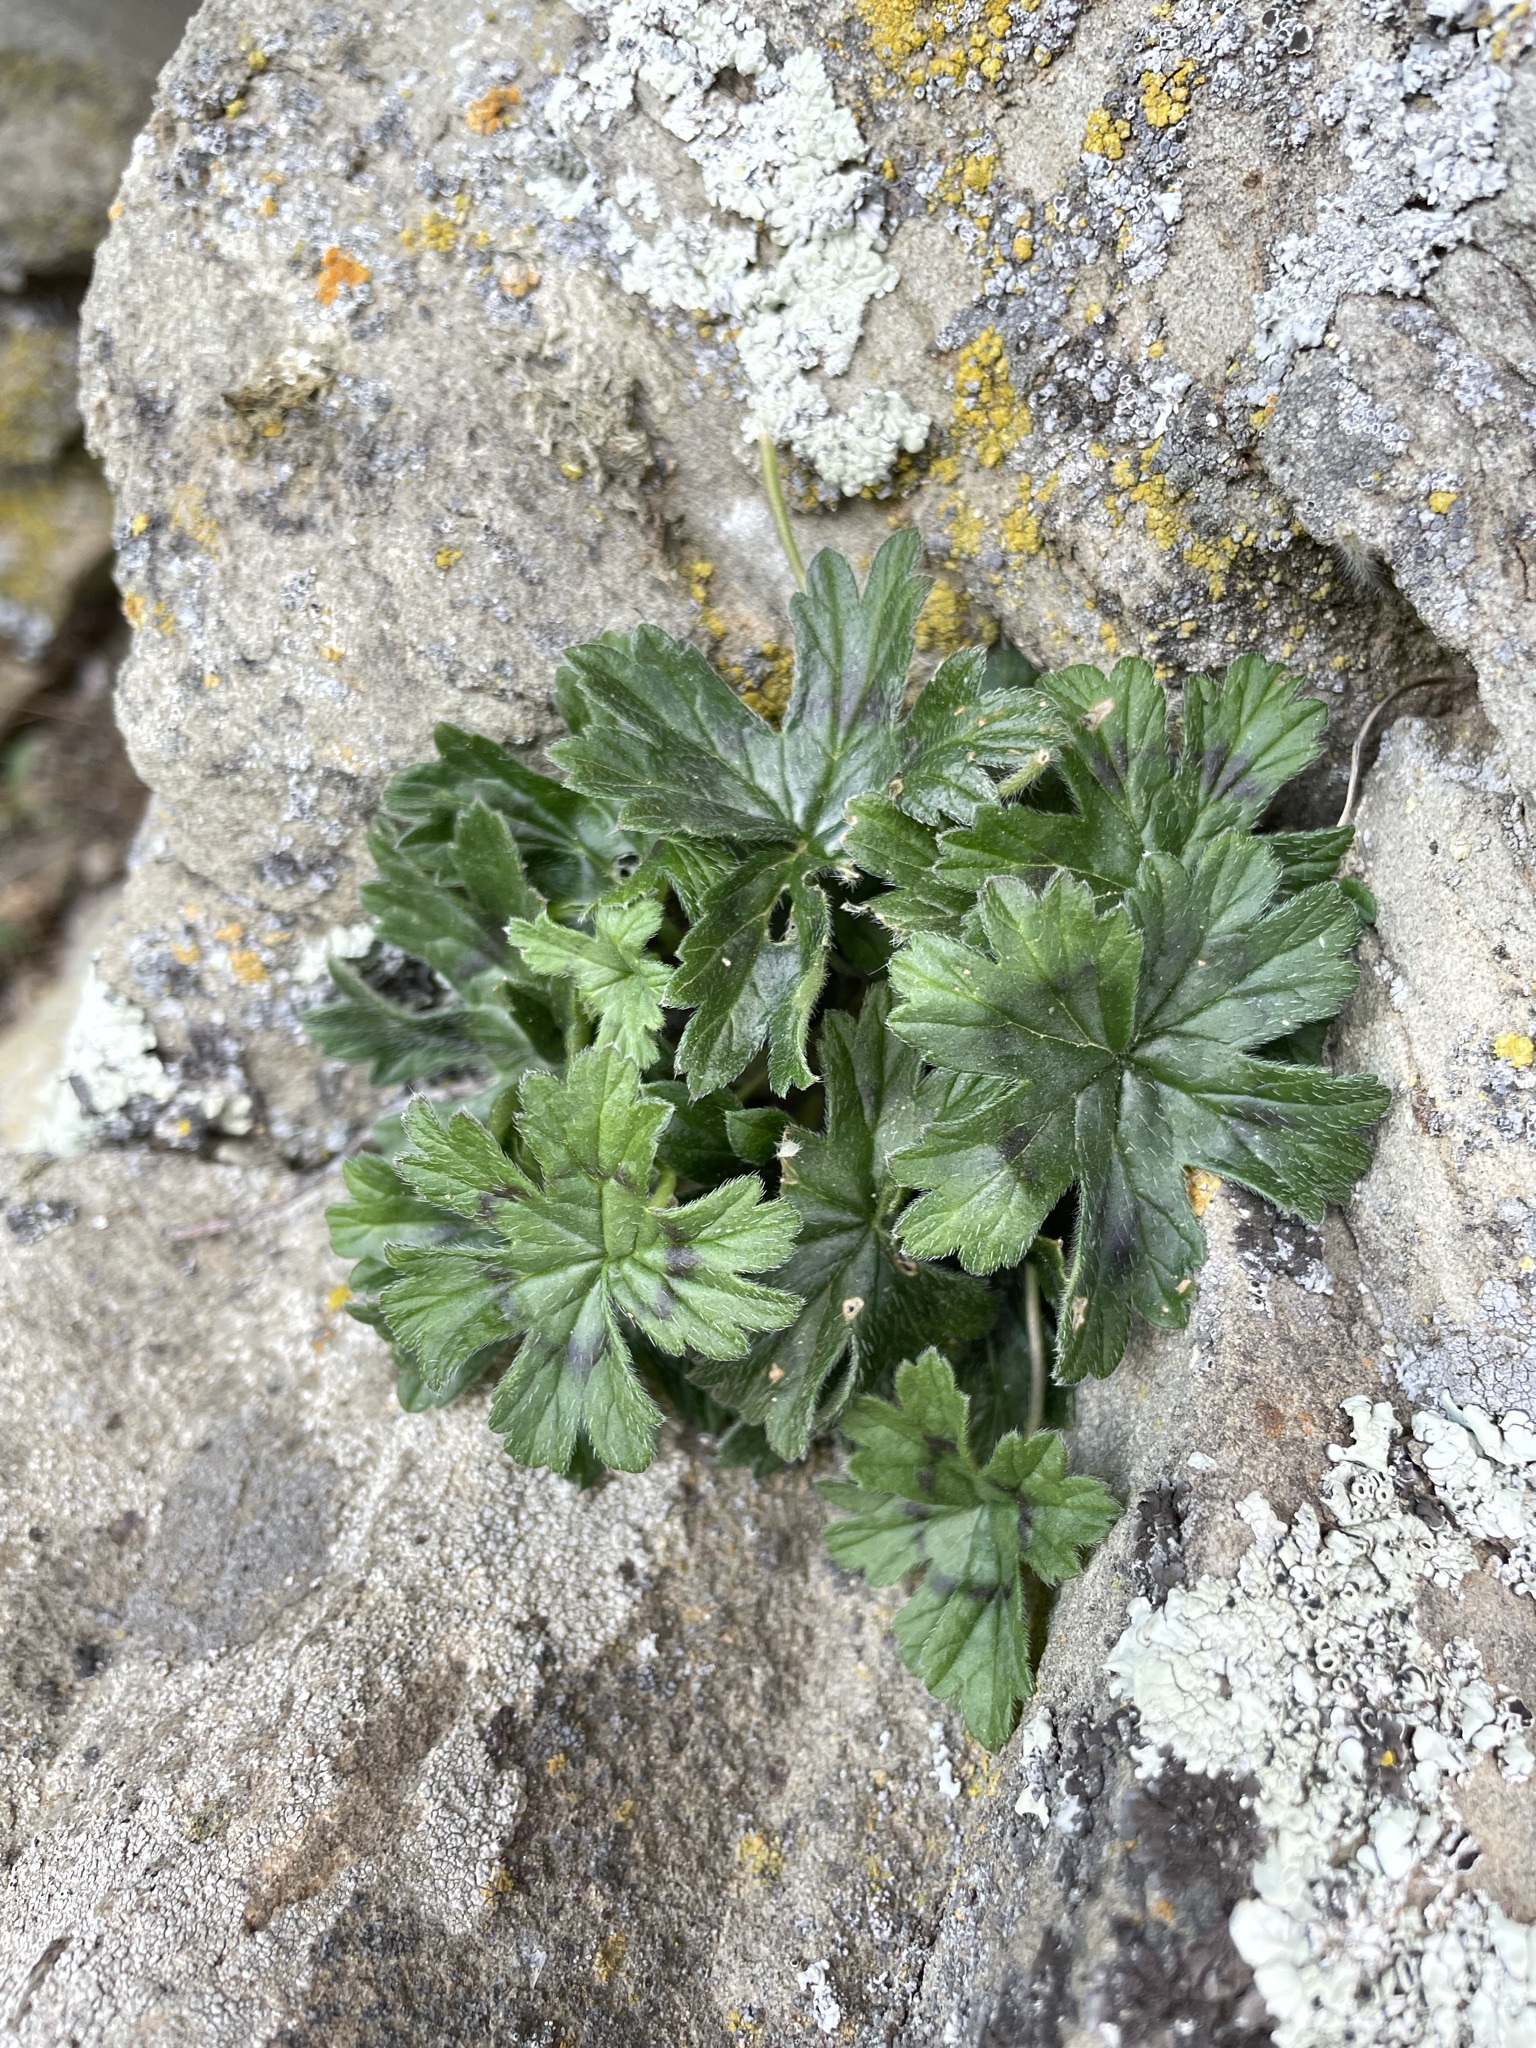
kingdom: Plantae
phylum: Tracheophyta
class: Magnoliopsida
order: Geraniales
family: Geraniaceae
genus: Pelargonium
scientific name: Pelargonium articulatum
